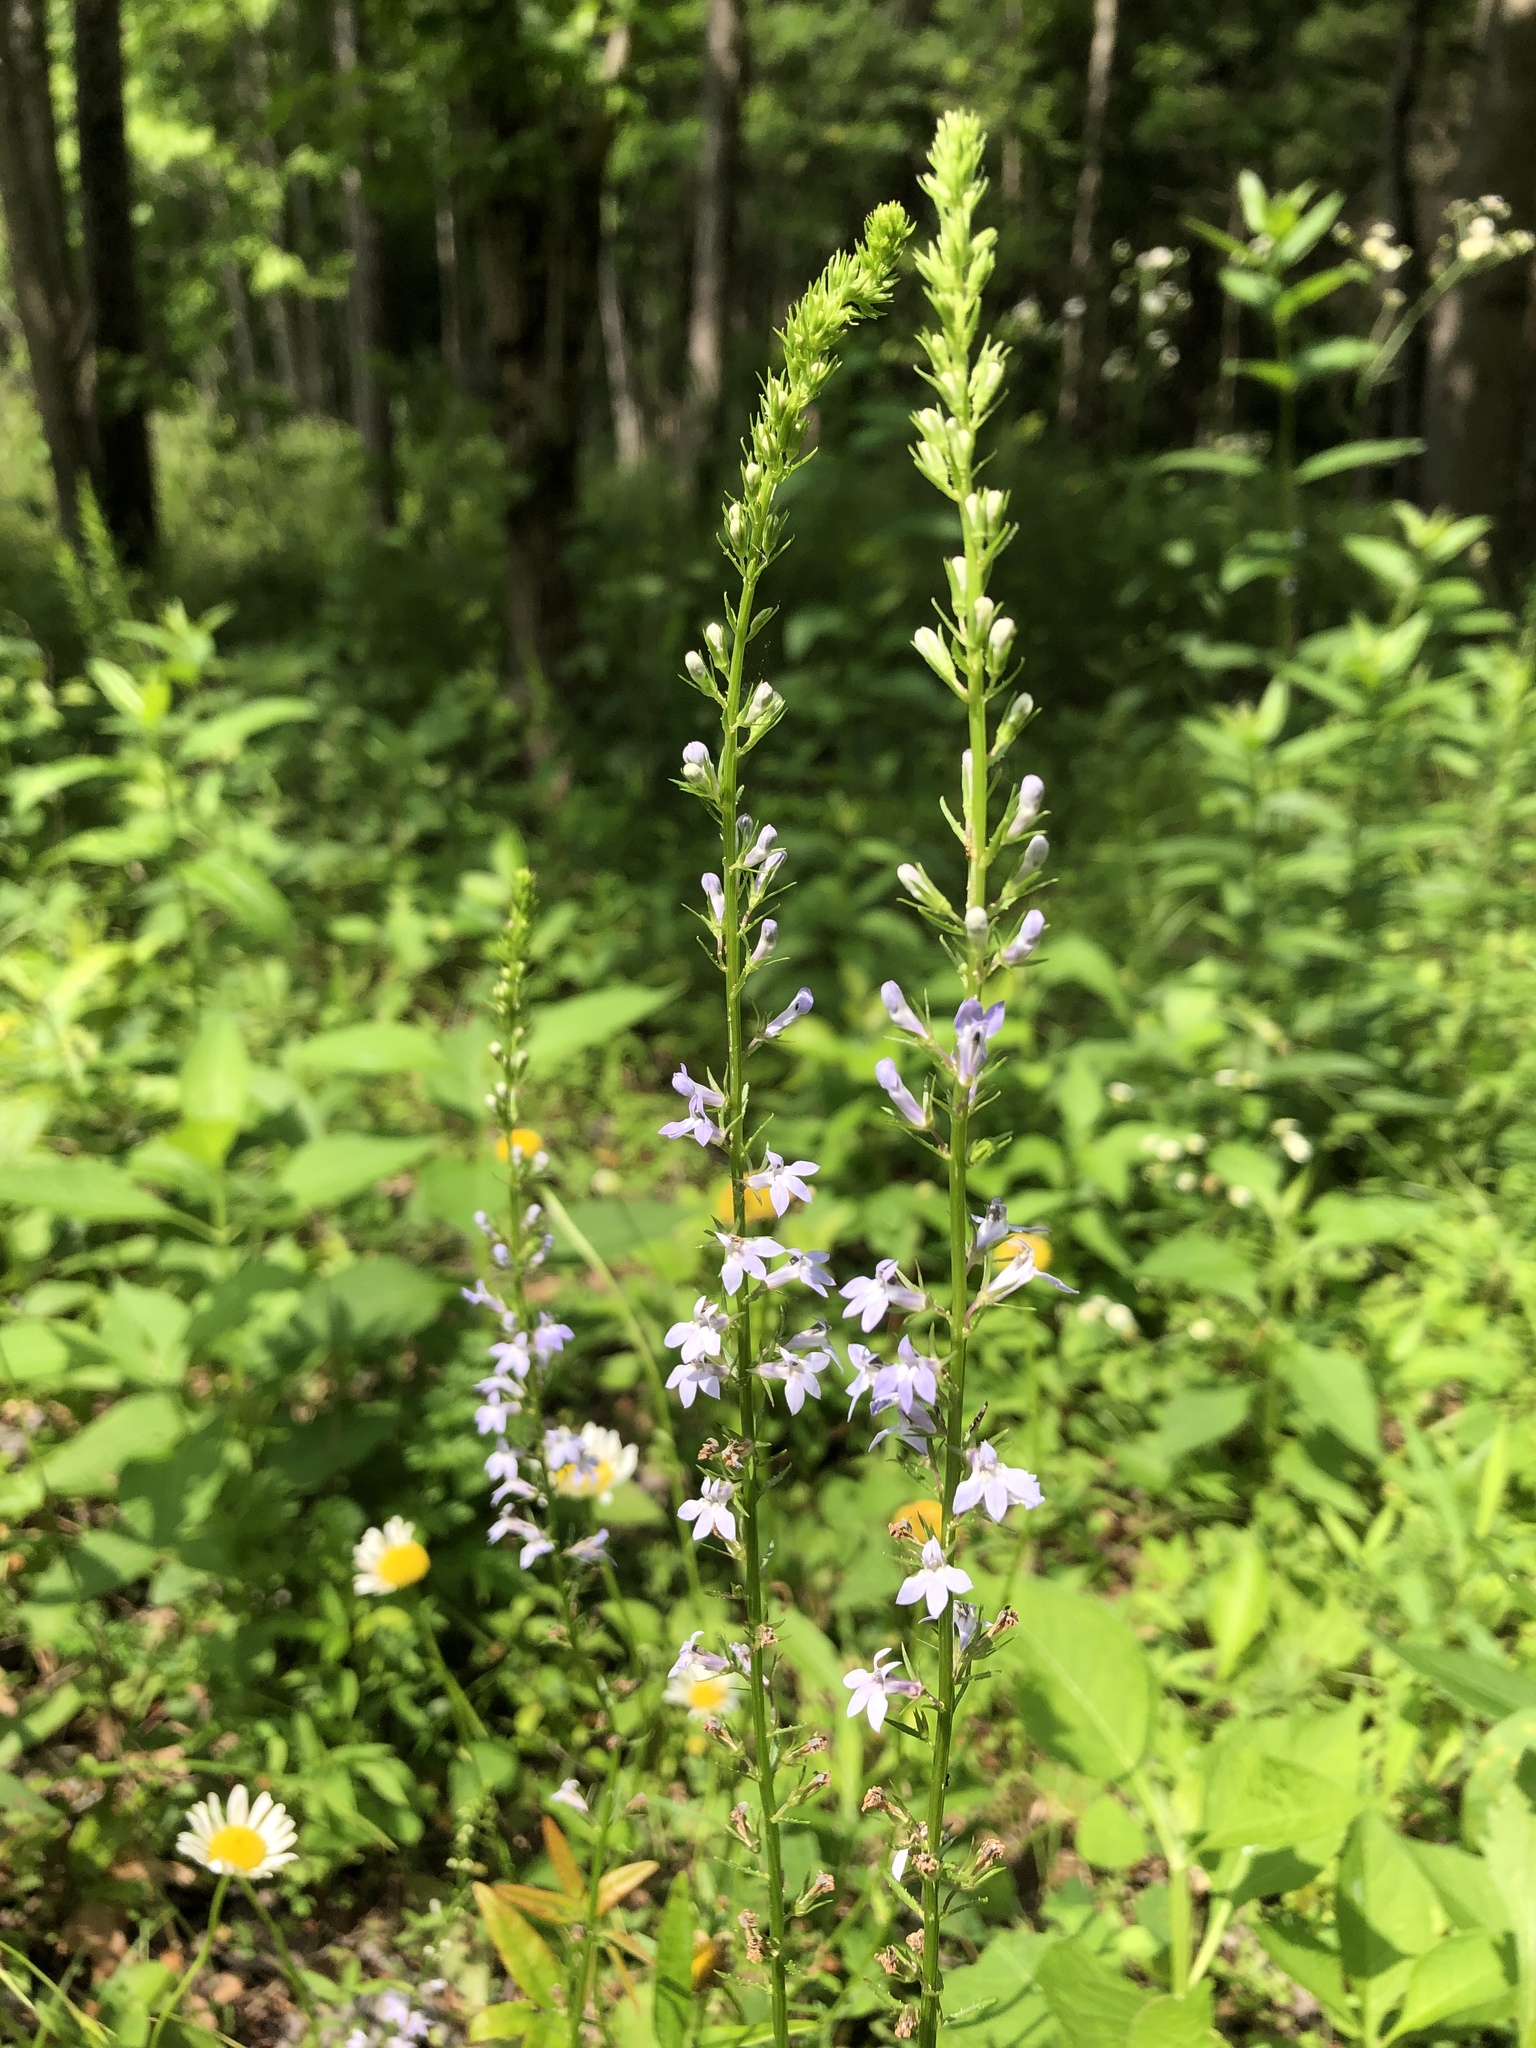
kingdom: Plantae
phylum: Tracheophyta
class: Magnoliopsida
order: Asterales
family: Campanulaceae
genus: Lobelia
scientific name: Lobelia spicata
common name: Pale-spike lobelia
